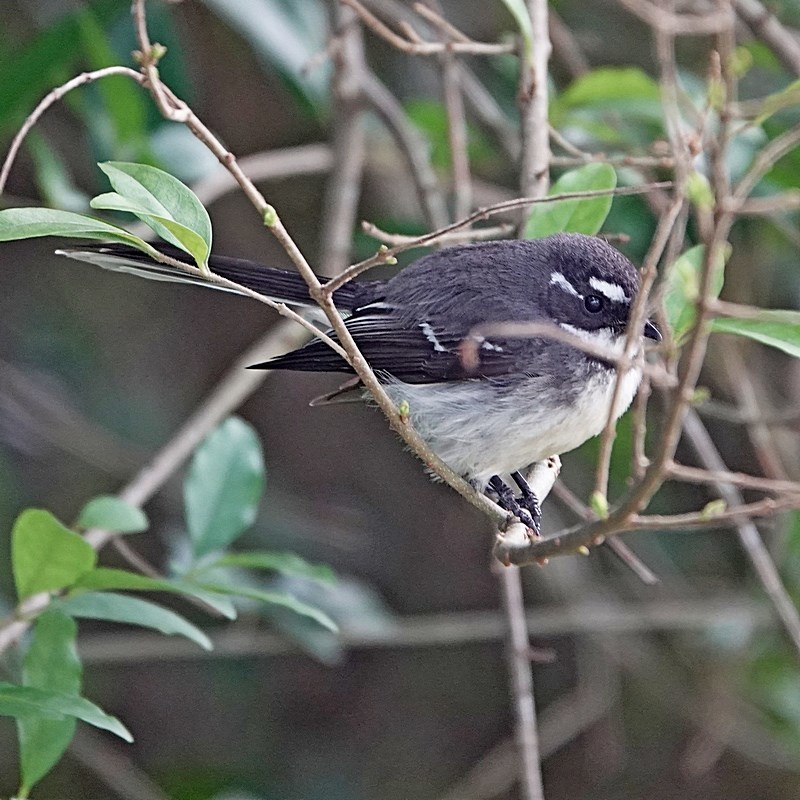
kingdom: Animalia
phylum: Chordata
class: Aves
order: Passeriformes
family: Rhipiduridae
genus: Rhipidura
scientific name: Rhipidura albiscapa
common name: Grey fantail
